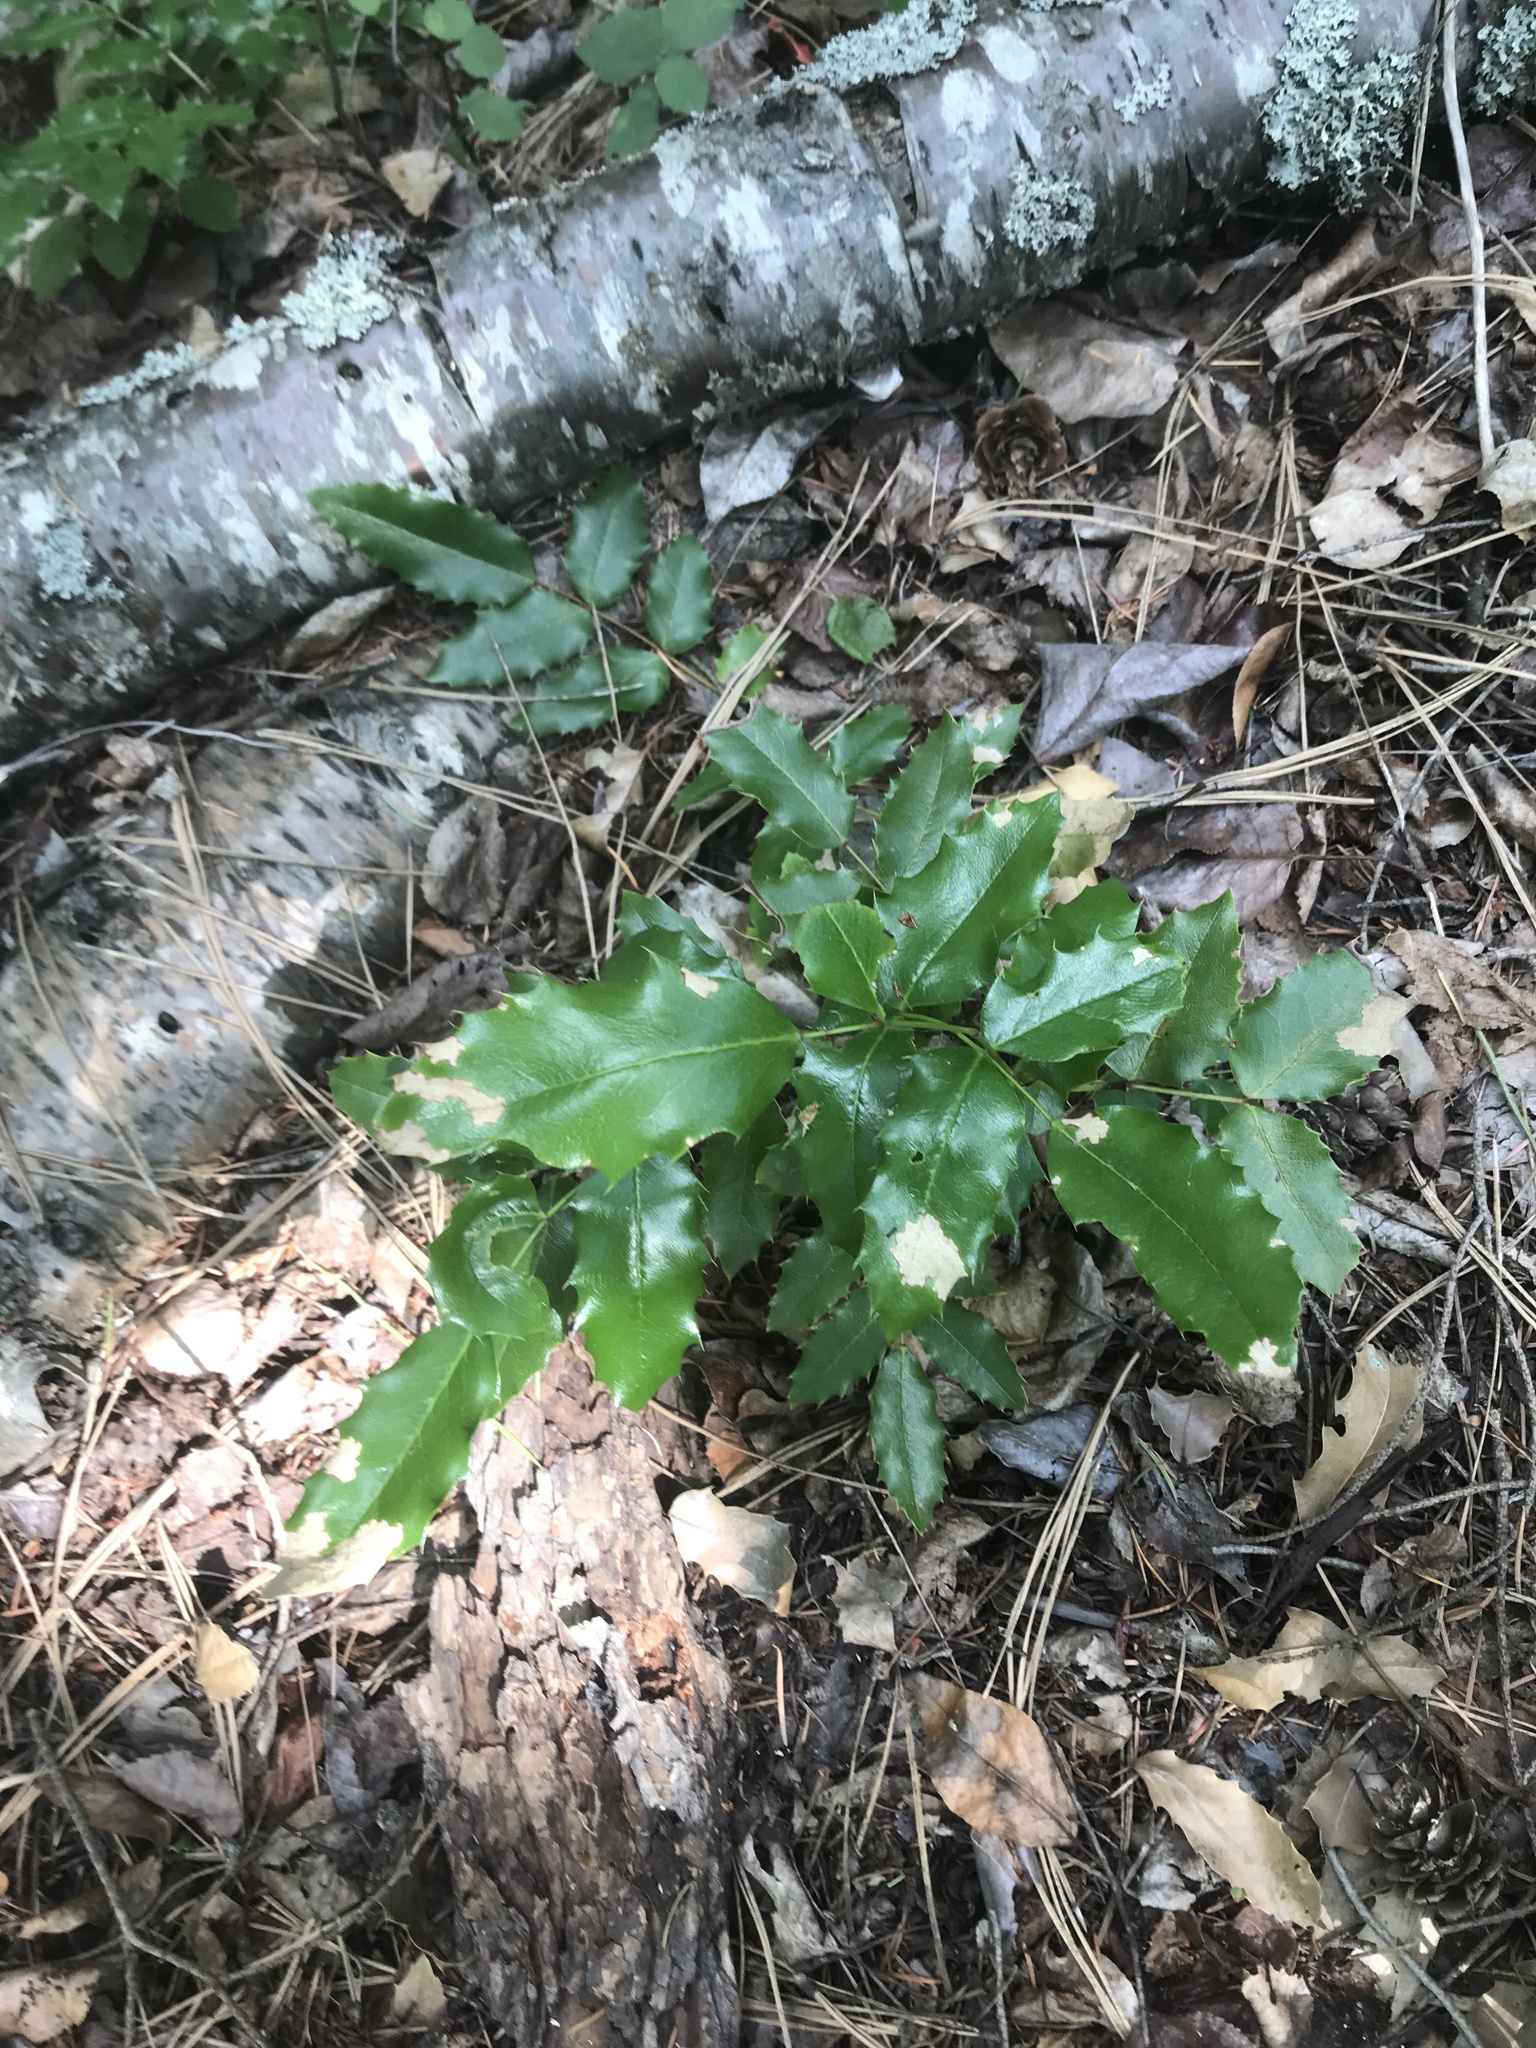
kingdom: Plantae
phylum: Tracheophyta
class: Magnoliopsida
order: Ranunculales
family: Berberidaceae
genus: Mahonia
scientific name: Mahonia aquifolium
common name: Oregon-grape
